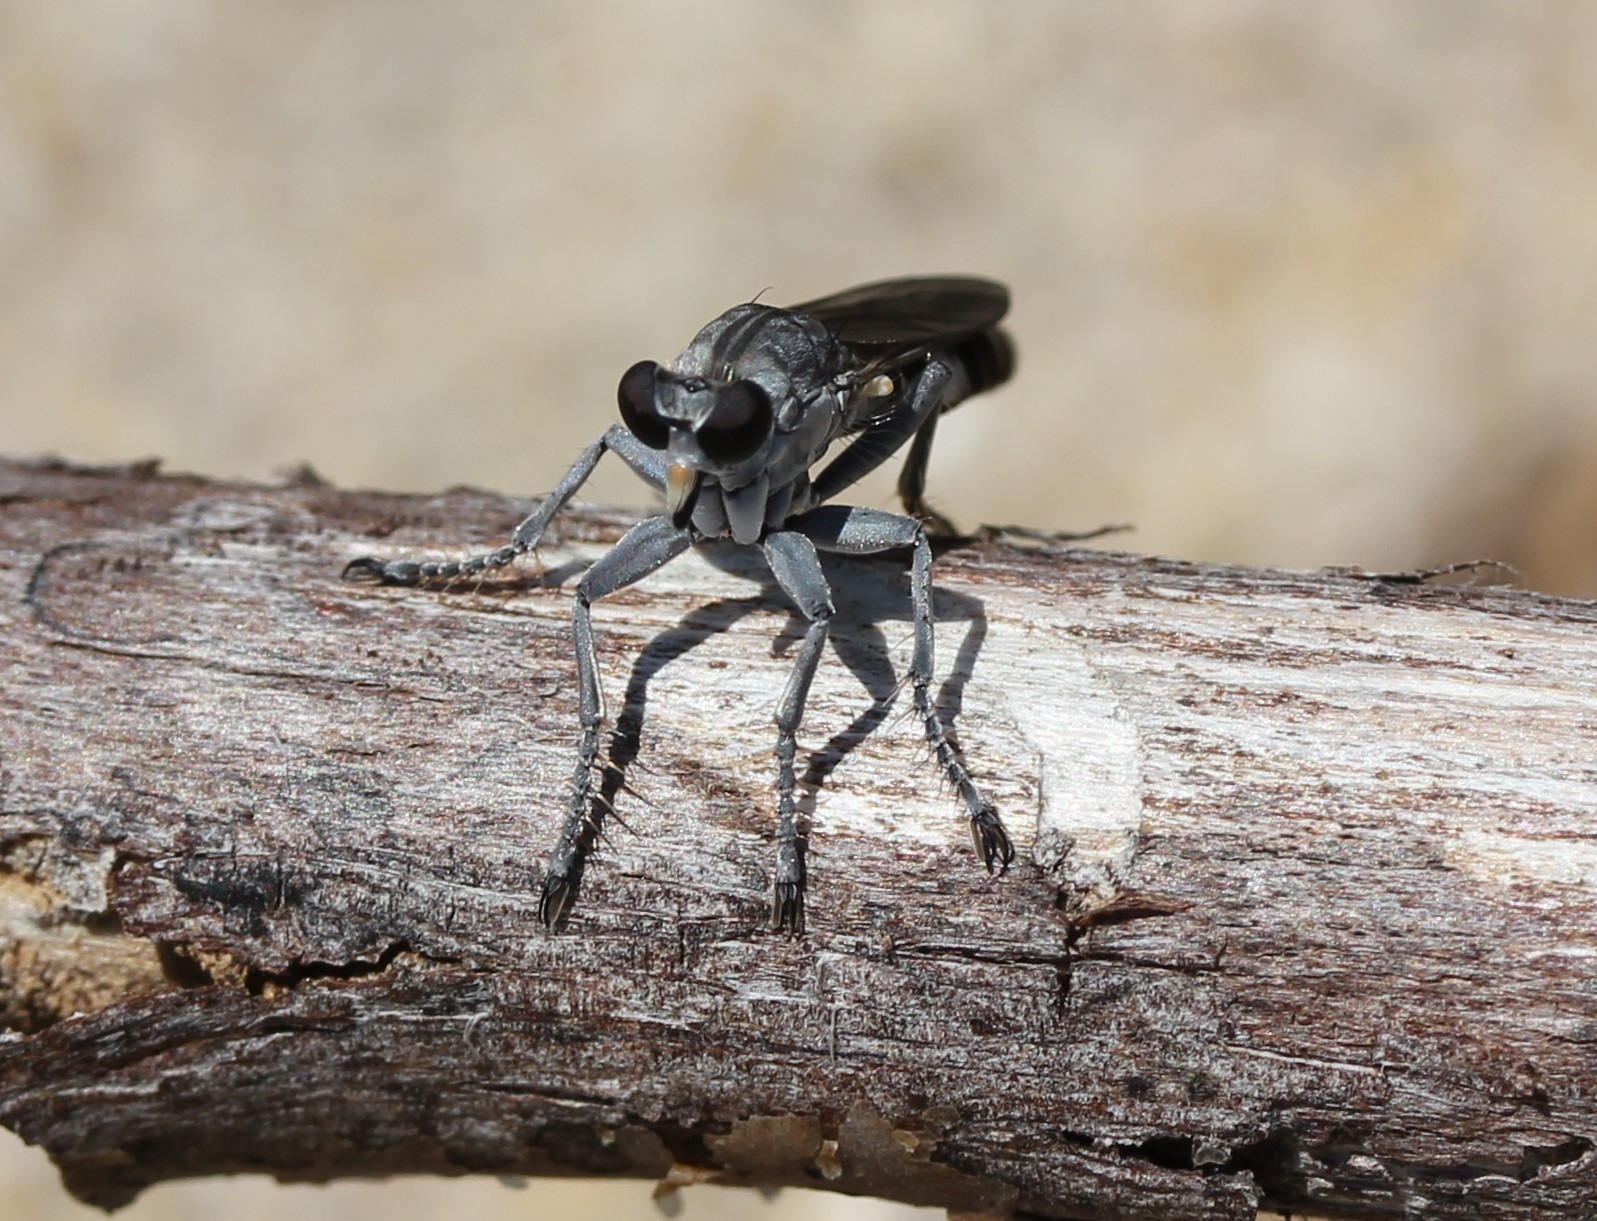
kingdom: Animalia
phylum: Arthropoda
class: Insecta
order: Diptera
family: Asilidae
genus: Stichopogon
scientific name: Stichopogon trifasciatus
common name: Three-banded robber fly
